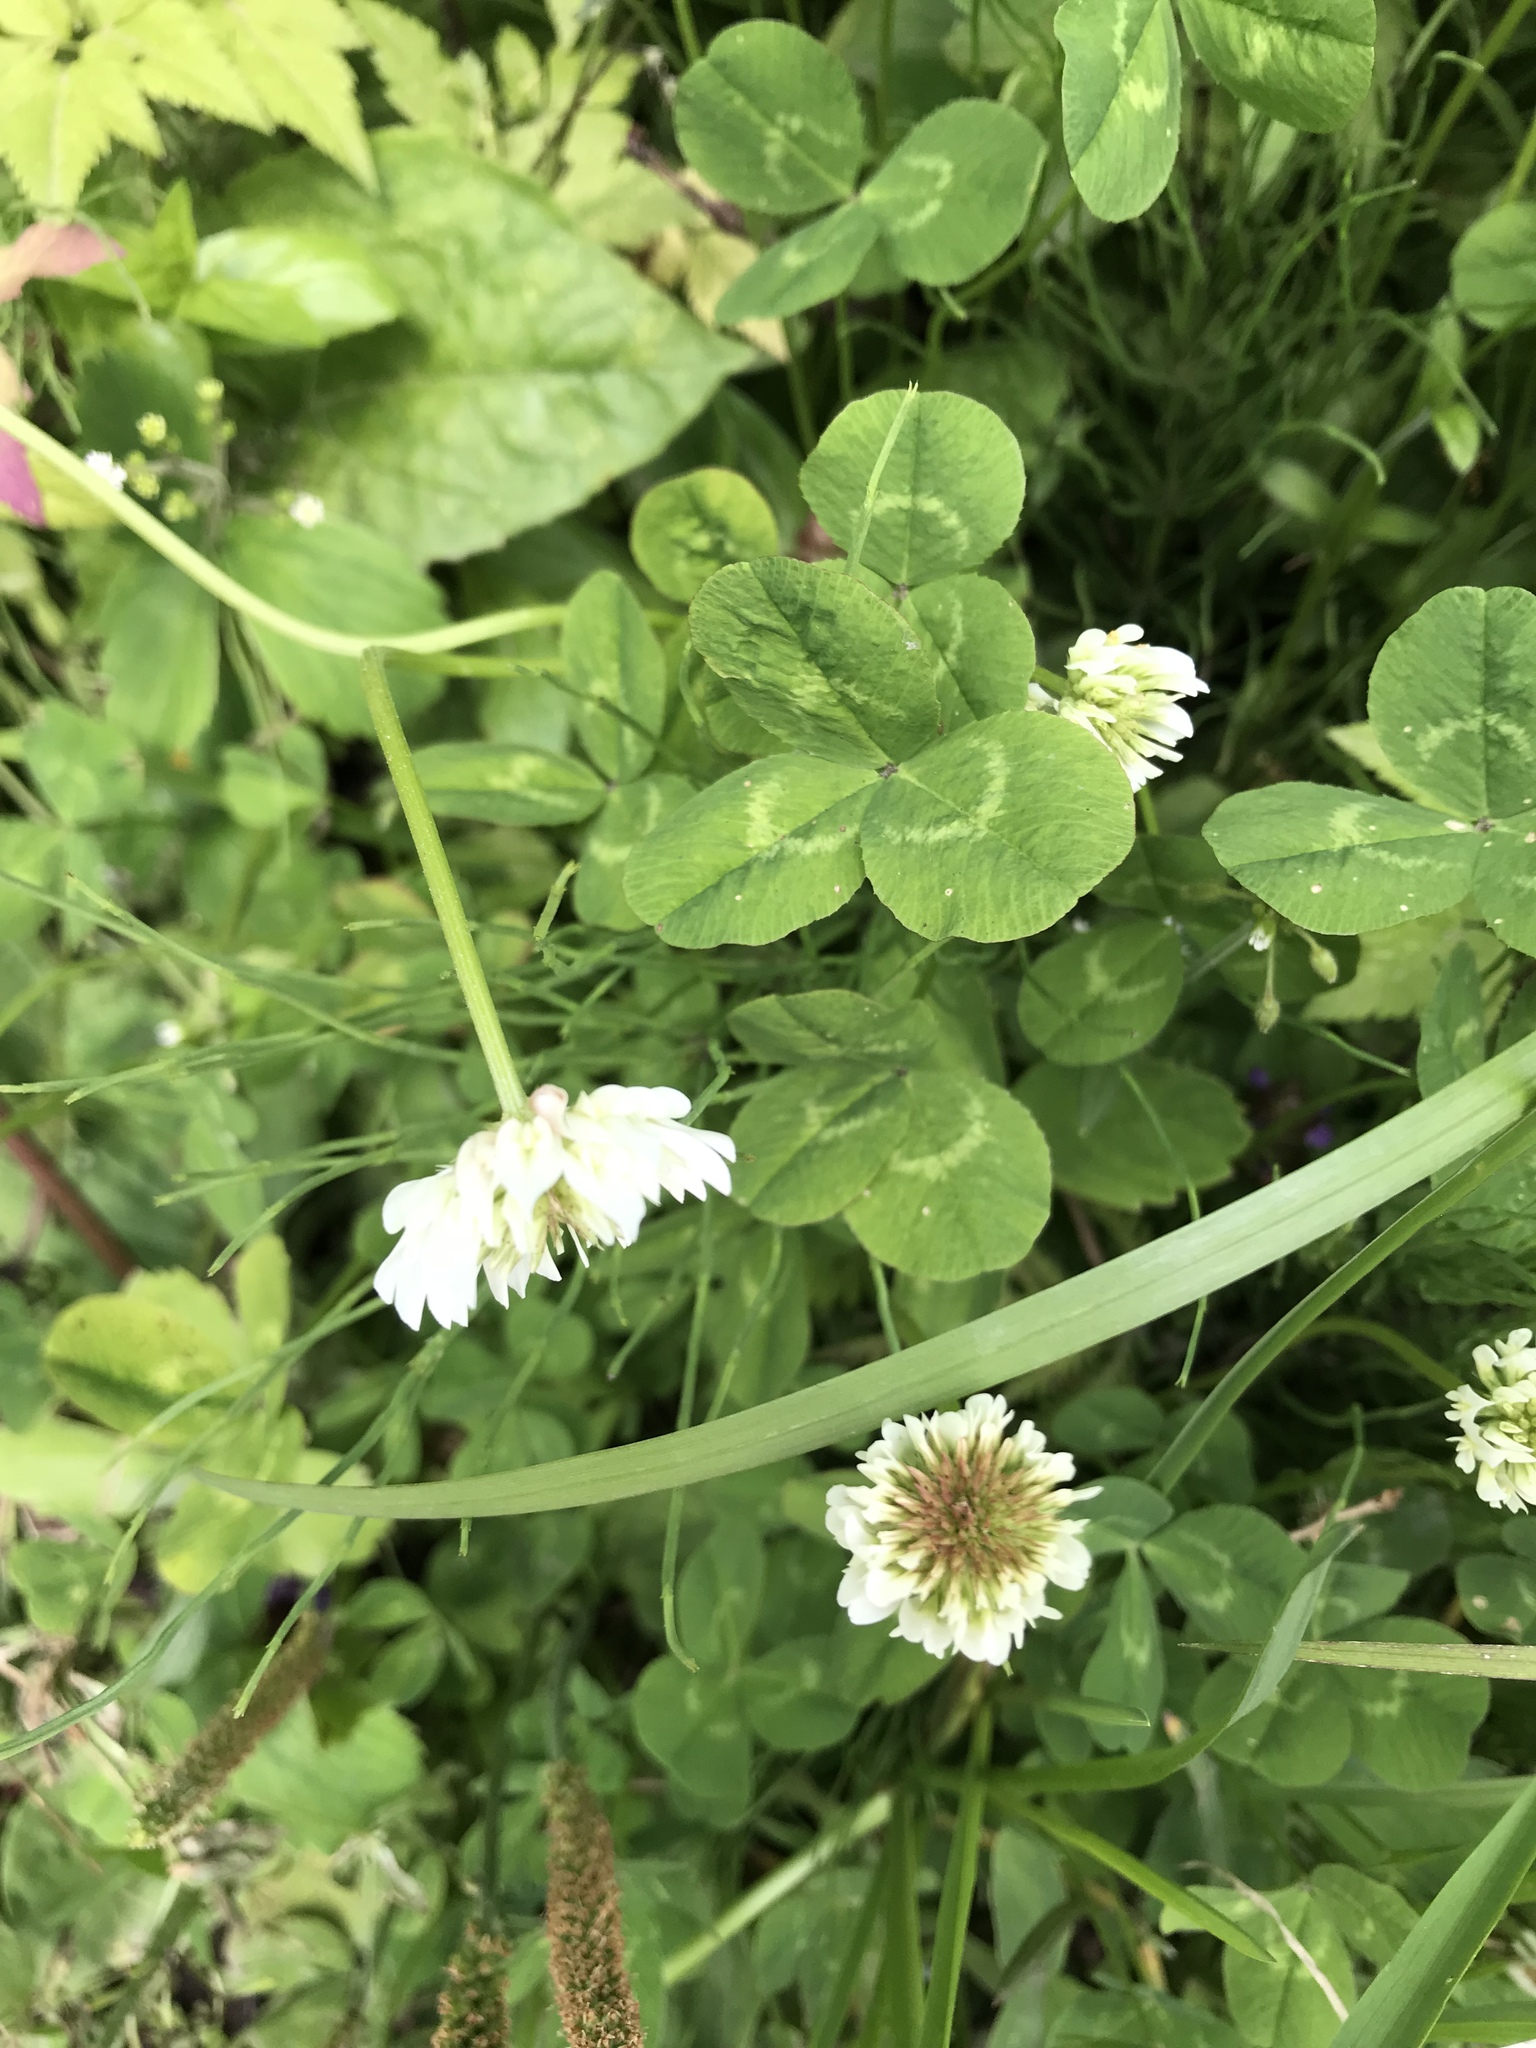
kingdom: Plantae
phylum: Tracheophyta
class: Magnoliopsida
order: Fabales
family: Fabaceae
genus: Trifolium
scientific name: Trifolium repens
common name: White clover
